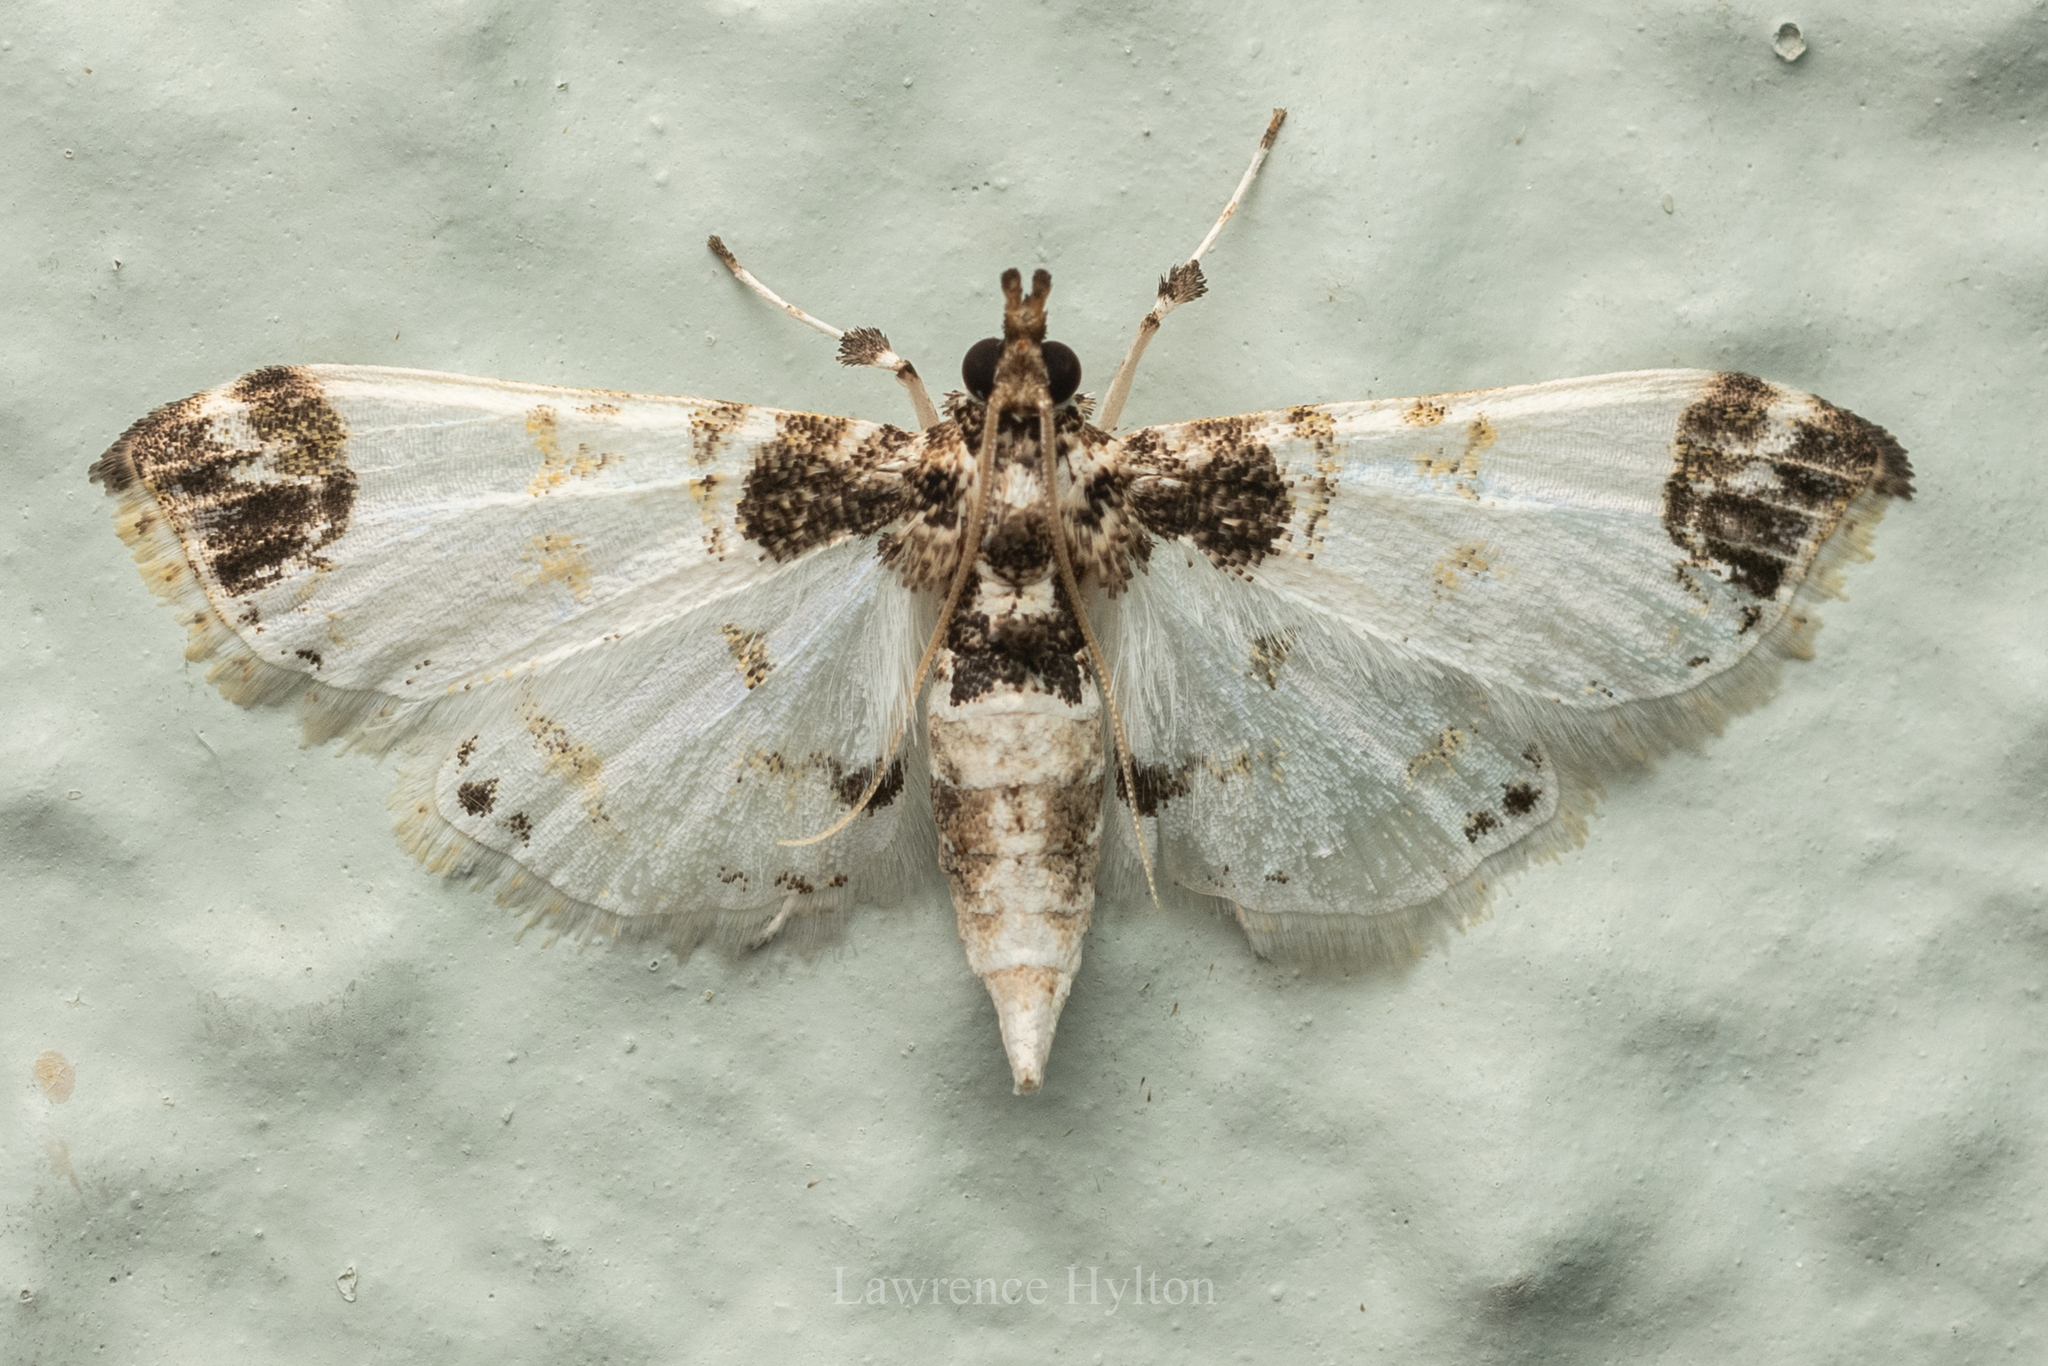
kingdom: Animalia
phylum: Arthropoda
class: Insecta
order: Lepidoptera
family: Crambidae
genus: Leucinodes
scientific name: Leucinodes apicalis
